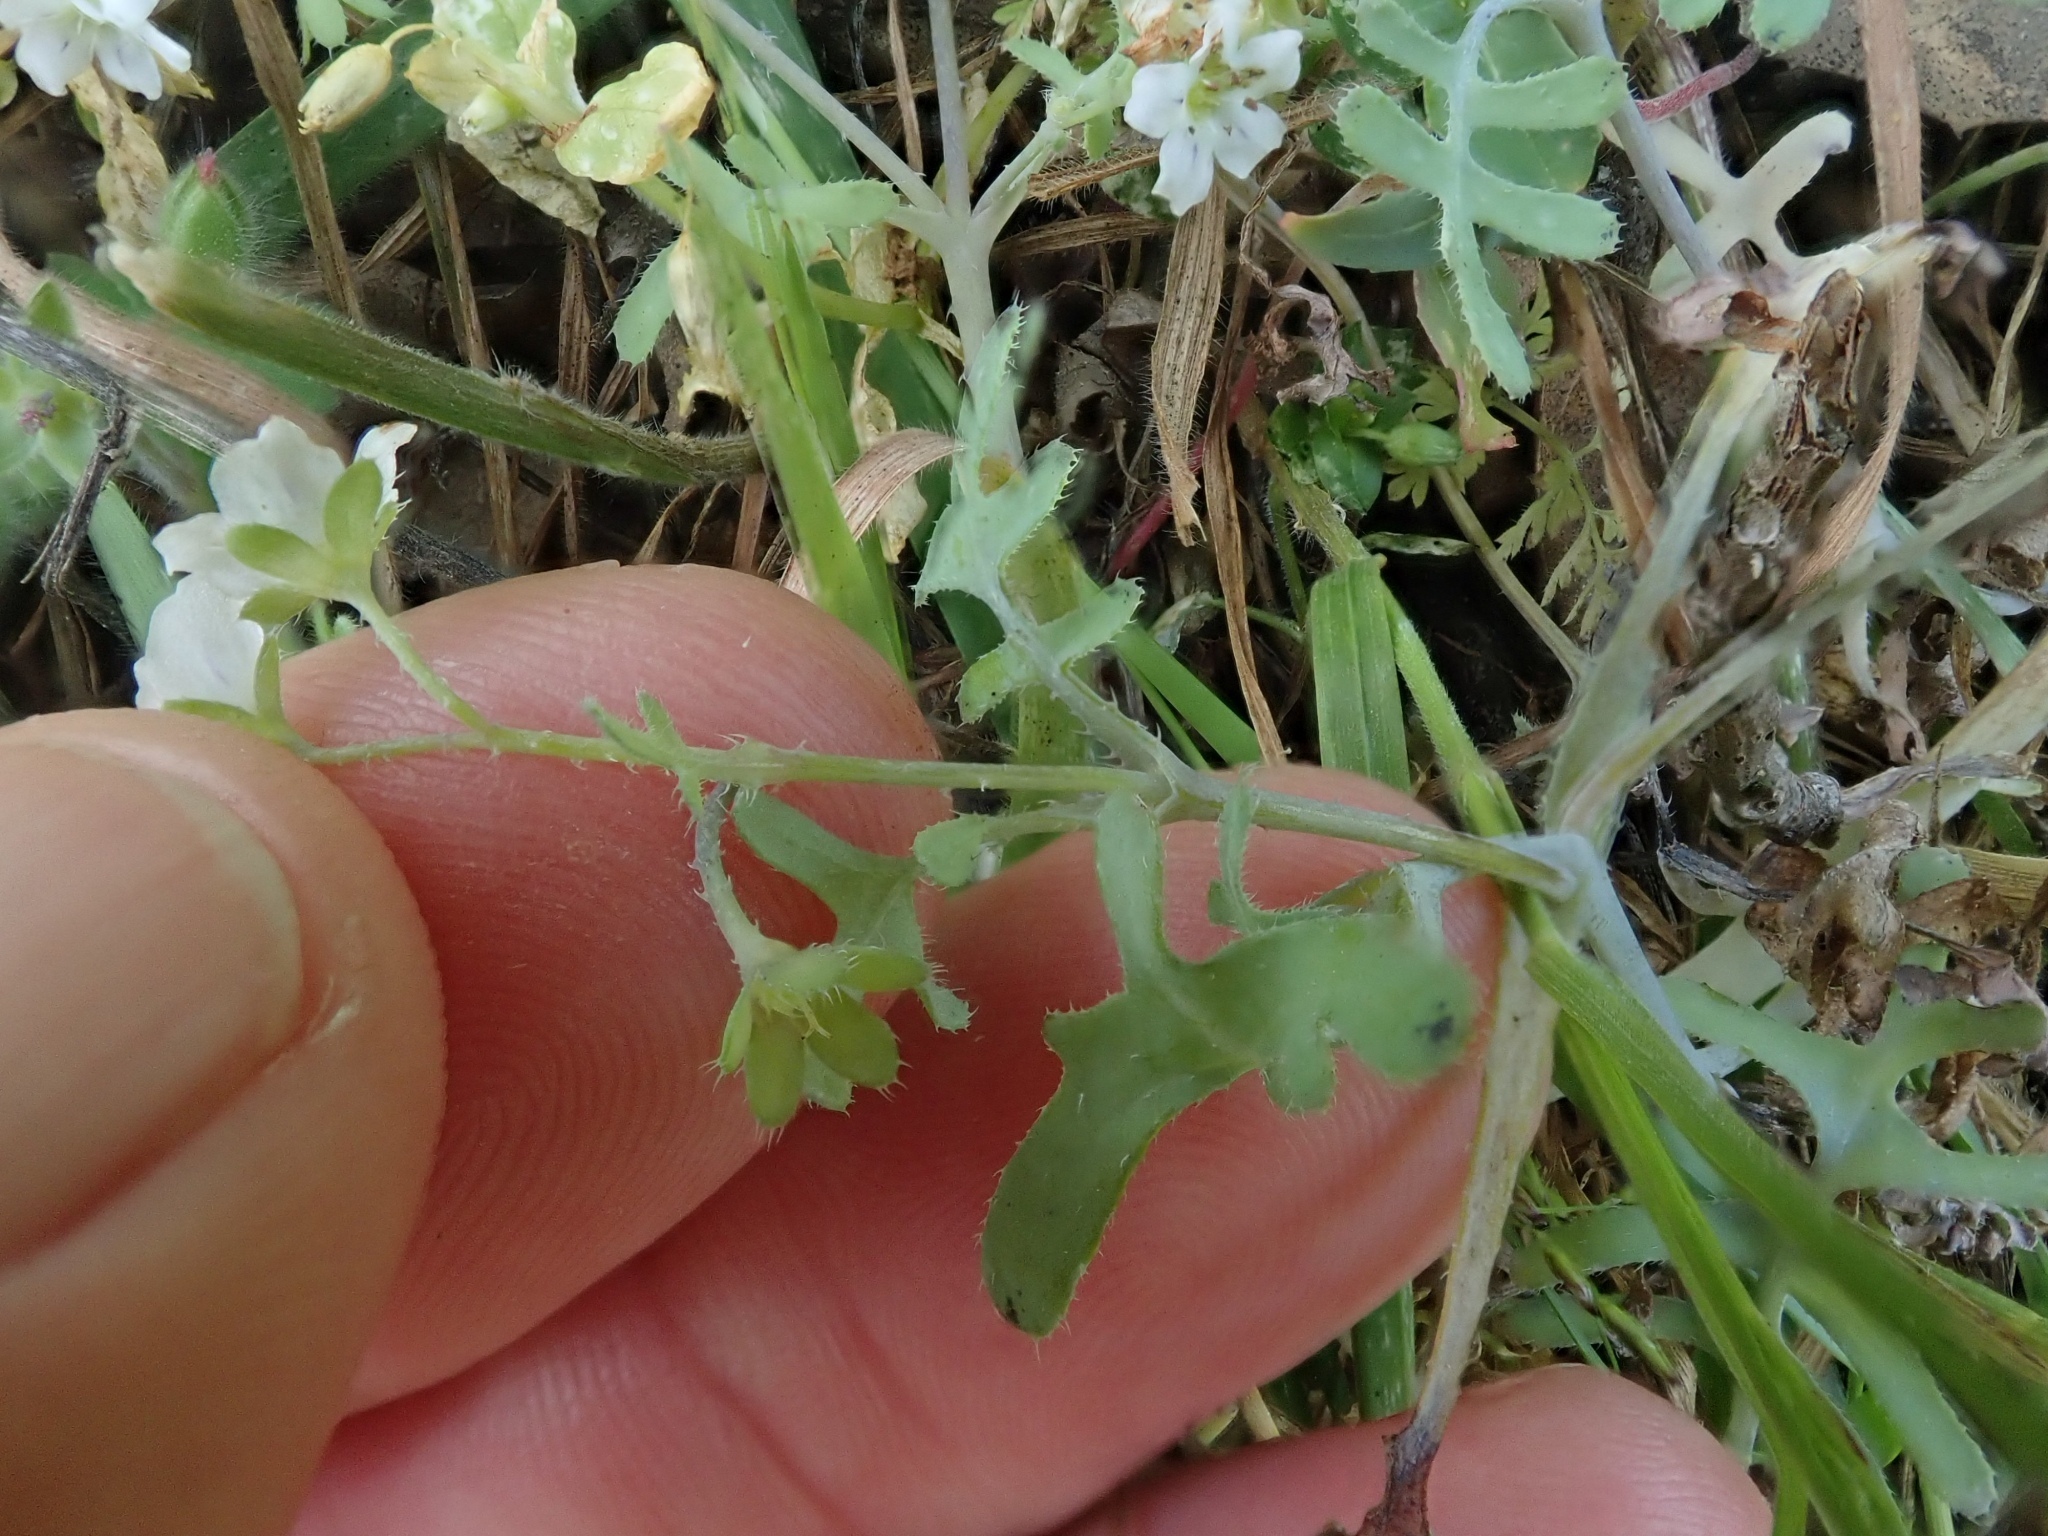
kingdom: Plantae
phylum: Tracheophyta
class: Magnoliopsida
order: Boraginales
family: Hydrophyllaceae
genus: Pholistoma
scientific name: Pholistoma membranaceum
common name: White fiesta-flower
